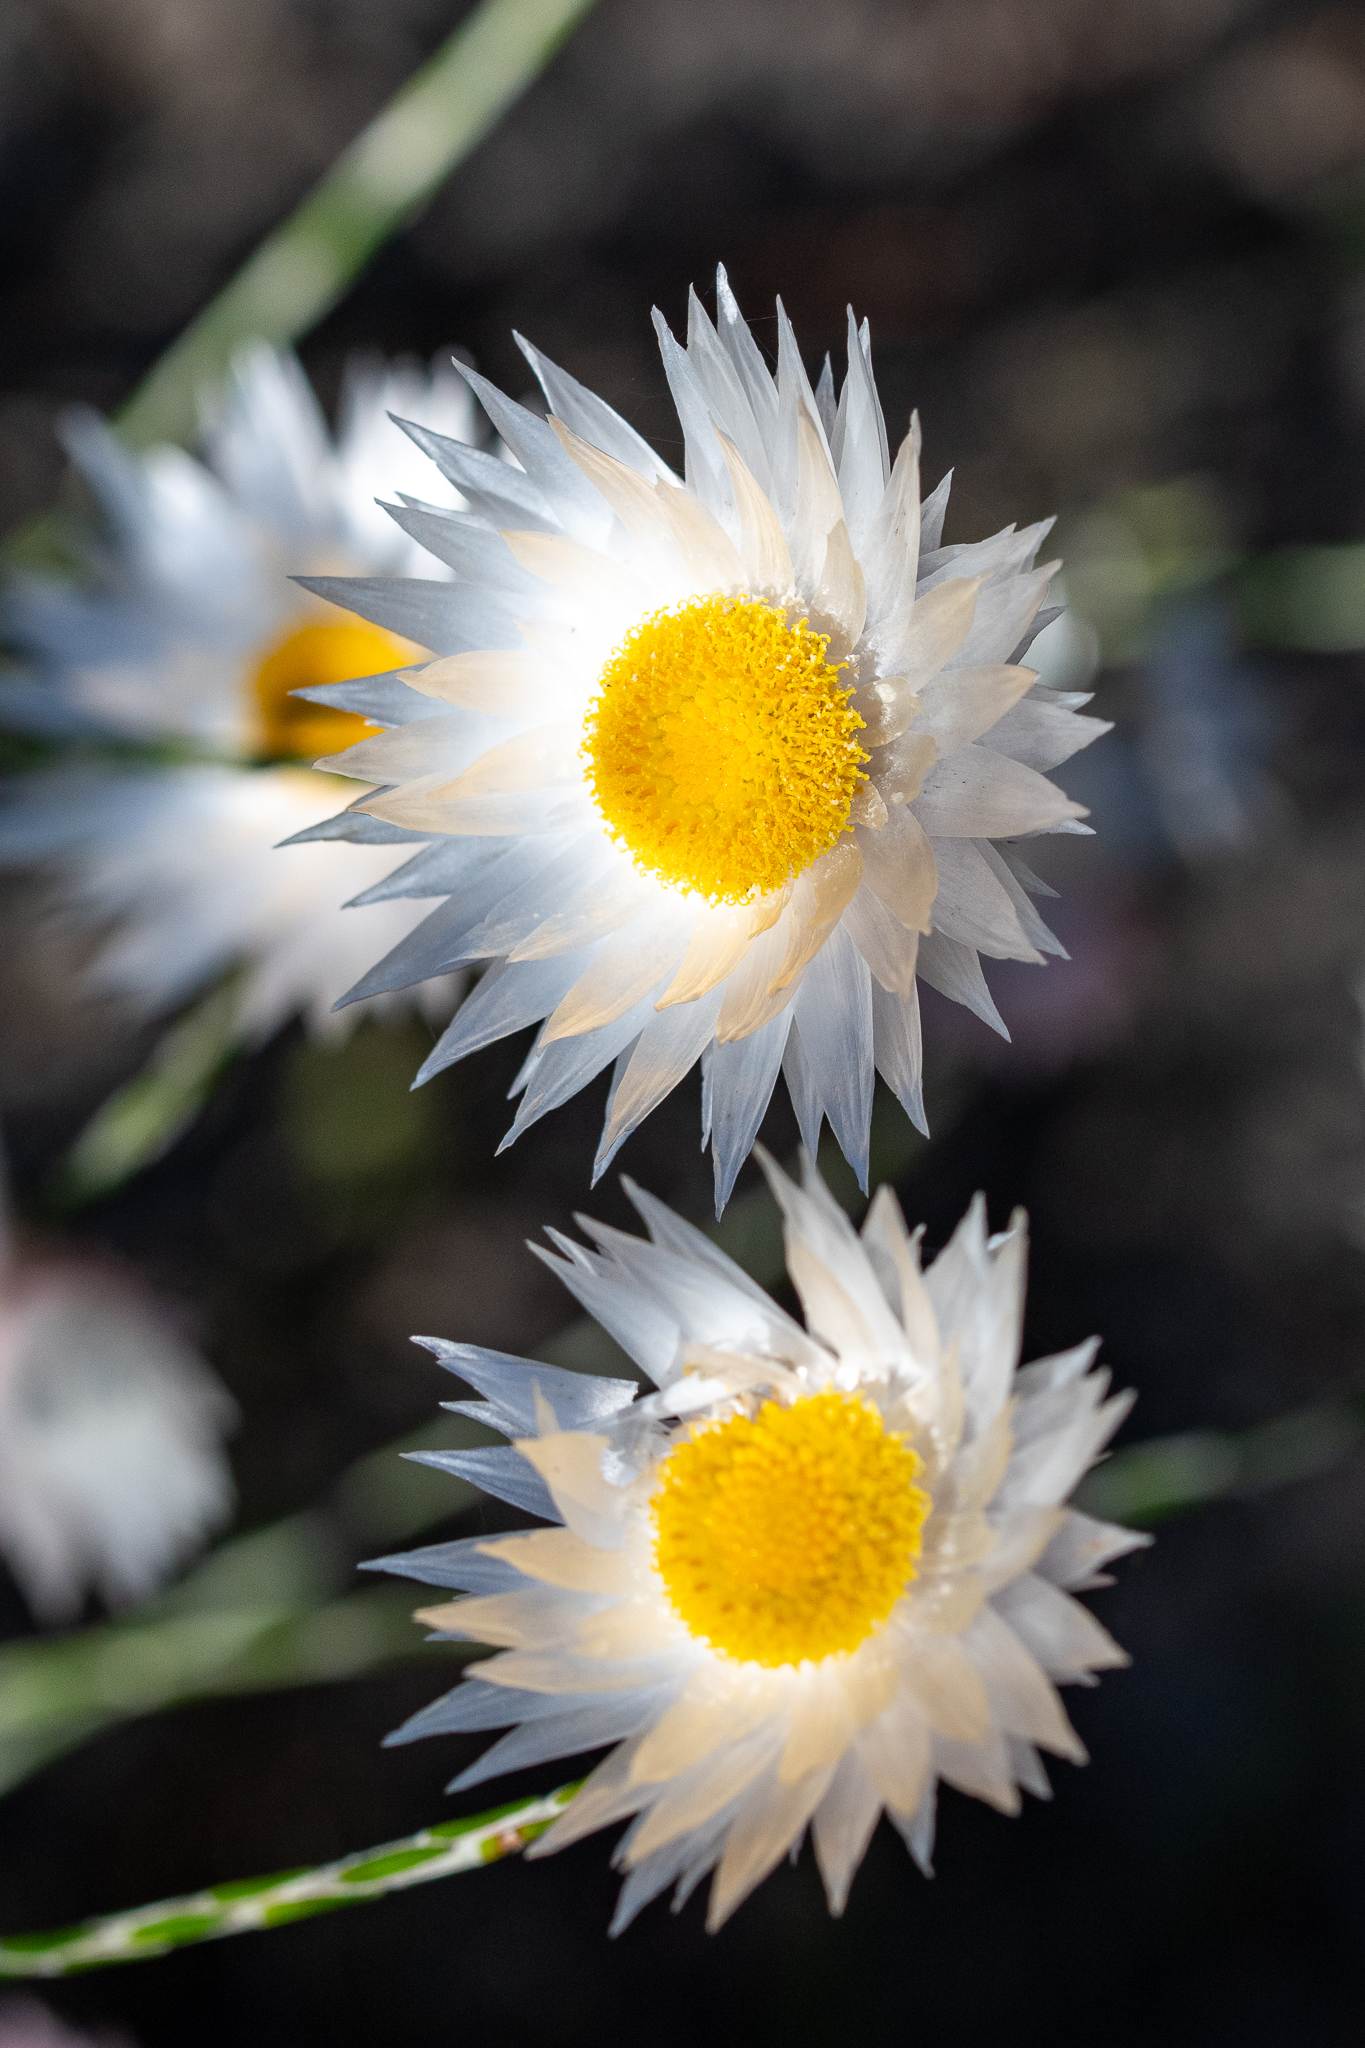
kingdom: Plantae
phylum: Tracheophyta
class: Magnoliopsida
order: Asterales
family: Asteraceae
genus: Edmondia
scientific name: Edmondia sesamoides
